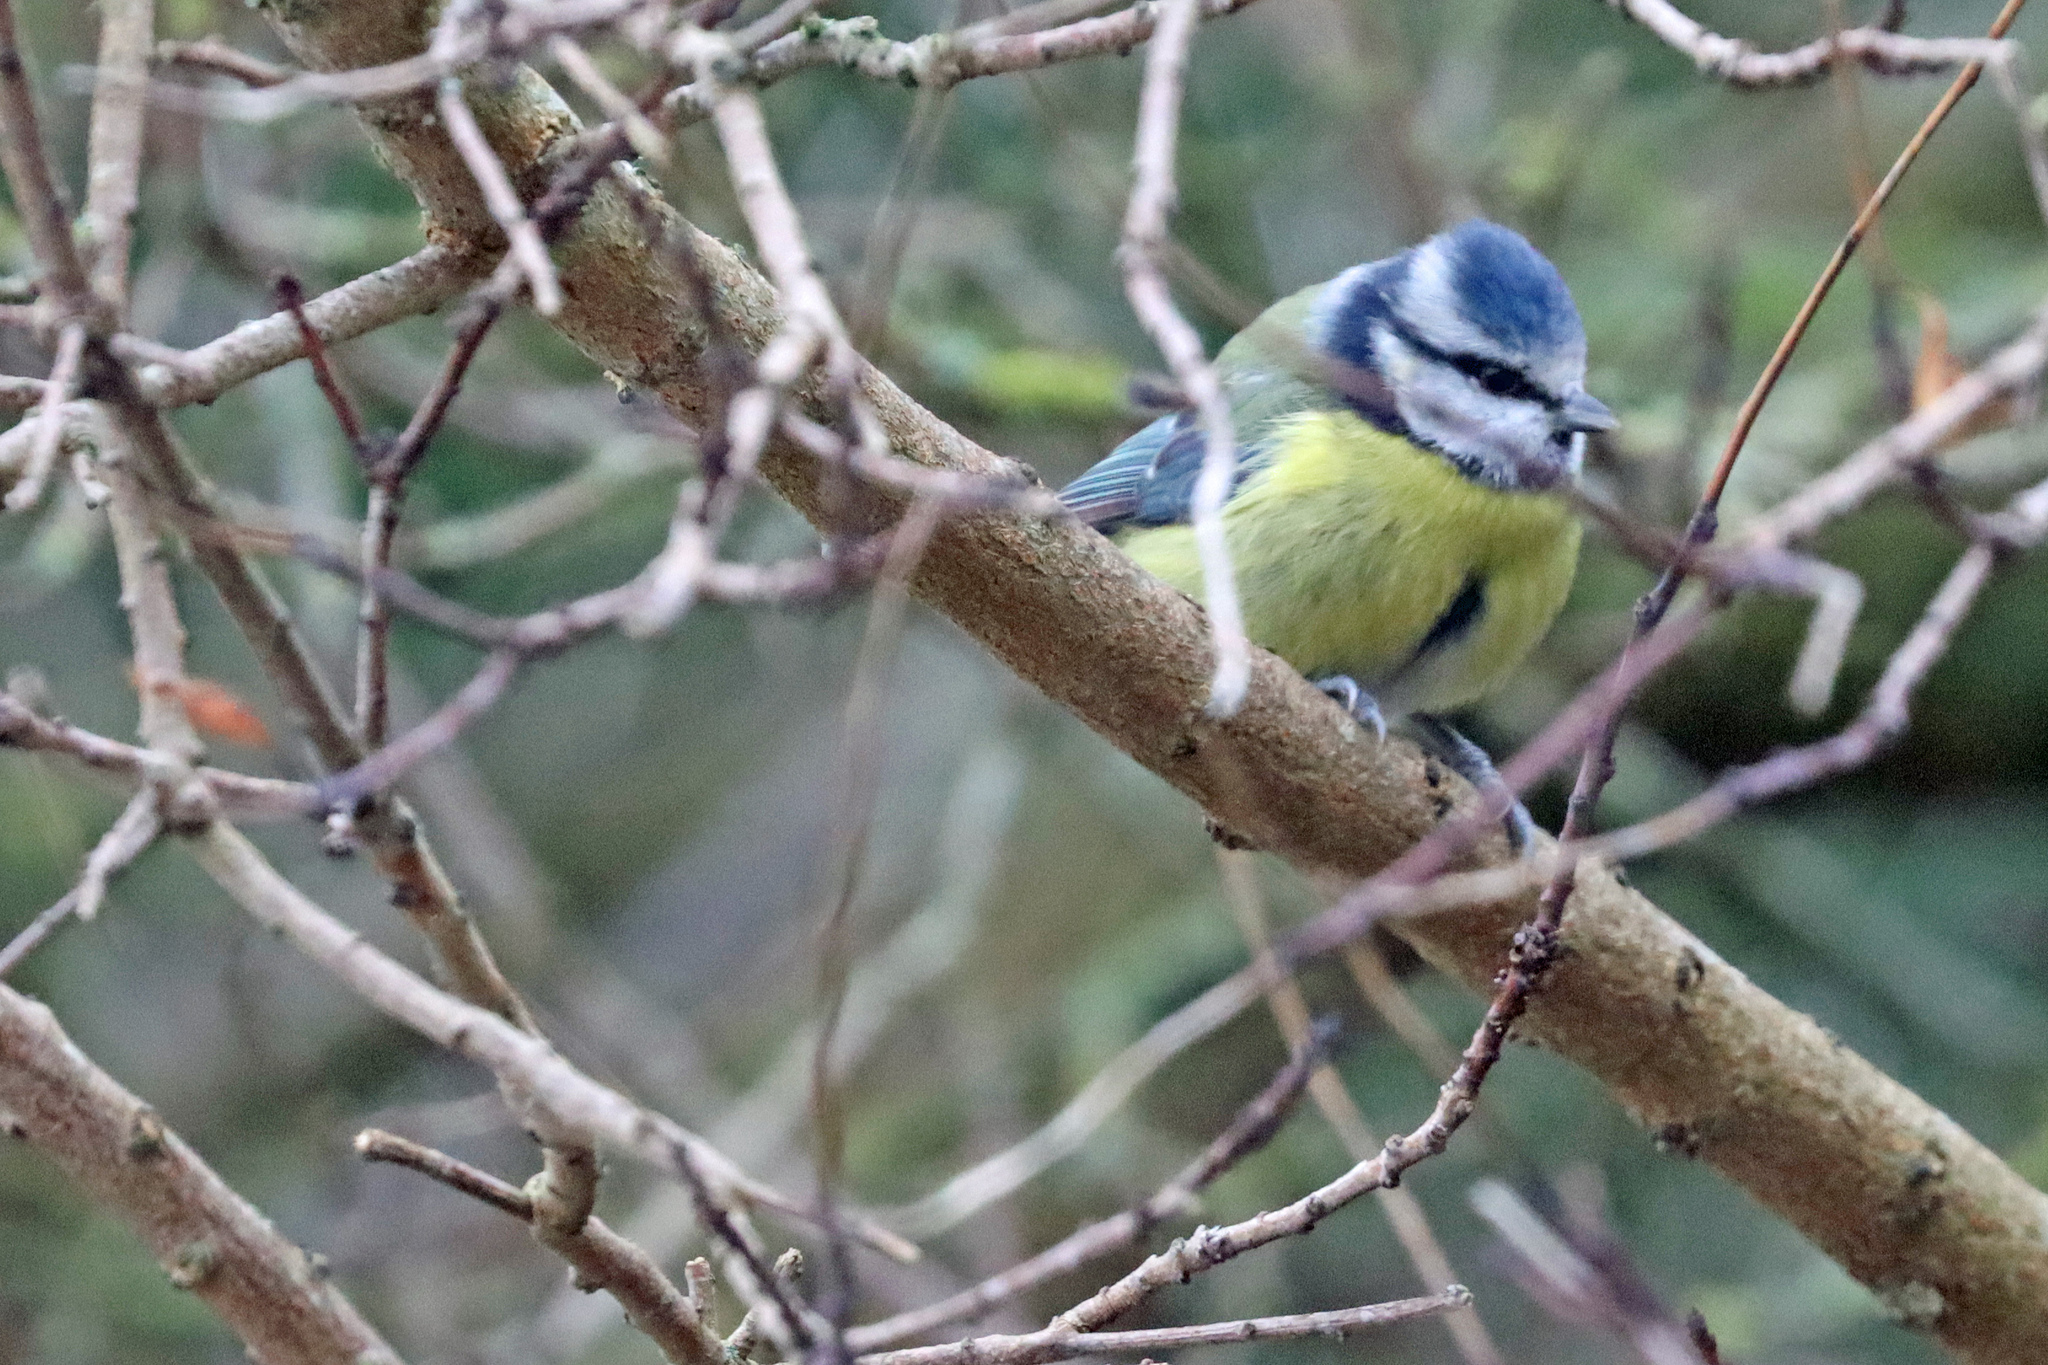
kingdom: Animalia
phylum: Chordata
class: Aves
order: Passeriformes
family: Paridae
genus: Cyanistes
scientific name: Cyanistes caeruleus
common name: Eurasian blue tit
